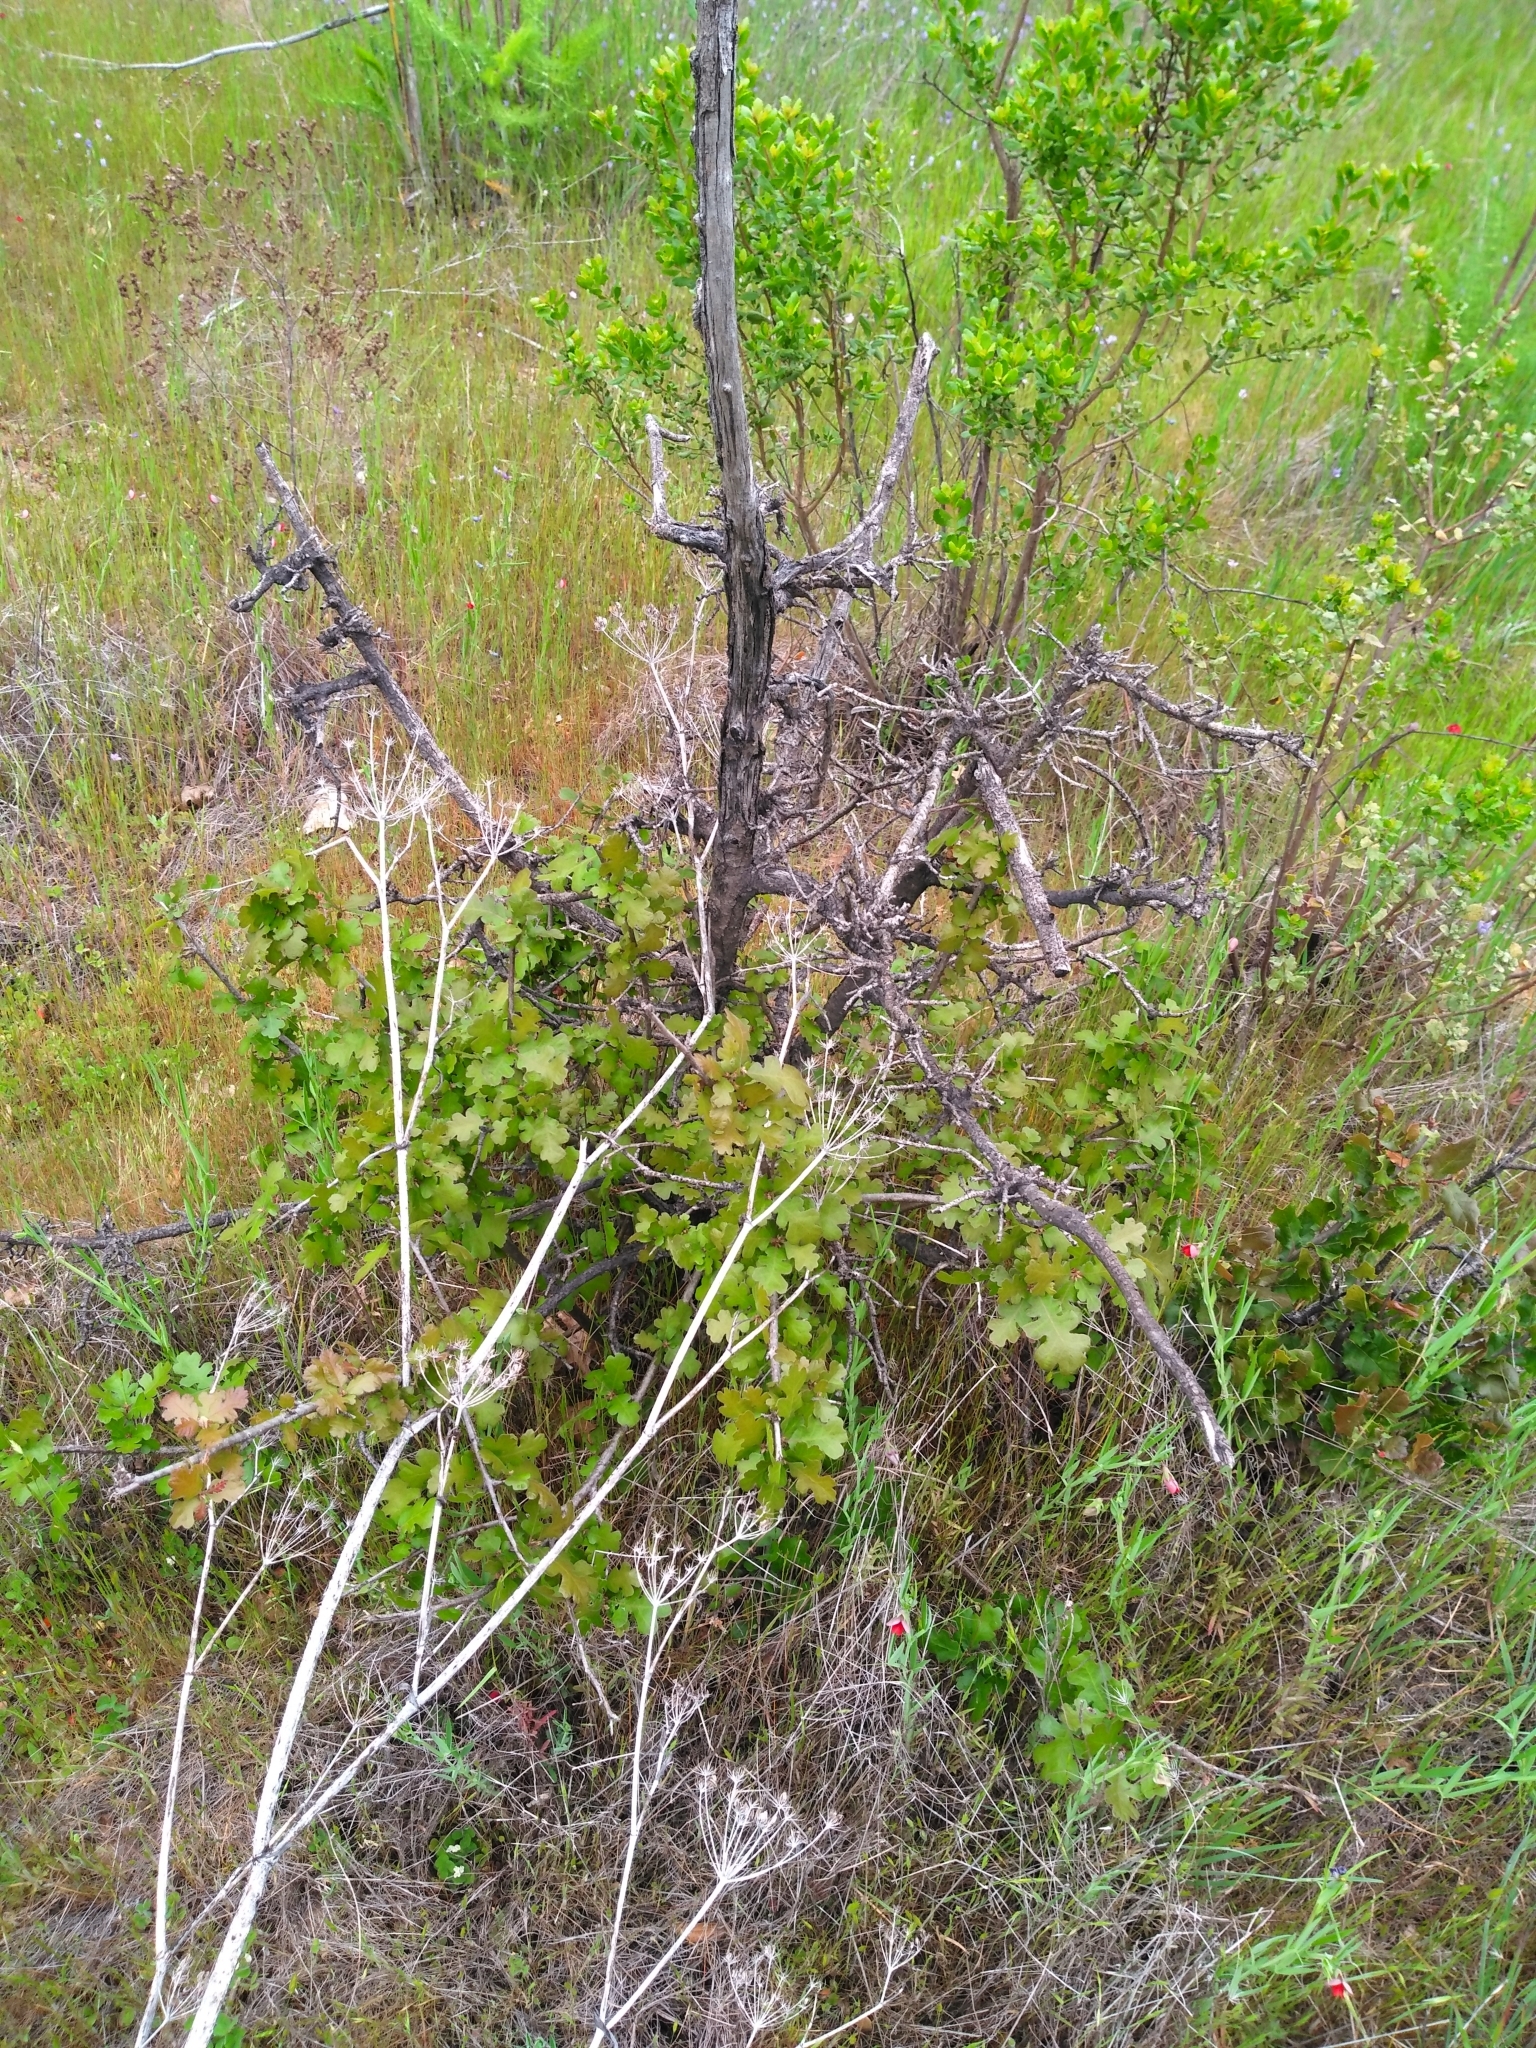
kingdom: Plantae
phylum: Tracheophyta
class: Magnoliopsida
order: Fagales
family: Fagaceae
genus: Quercus
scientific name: Quercus lobata
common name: Valley oak
